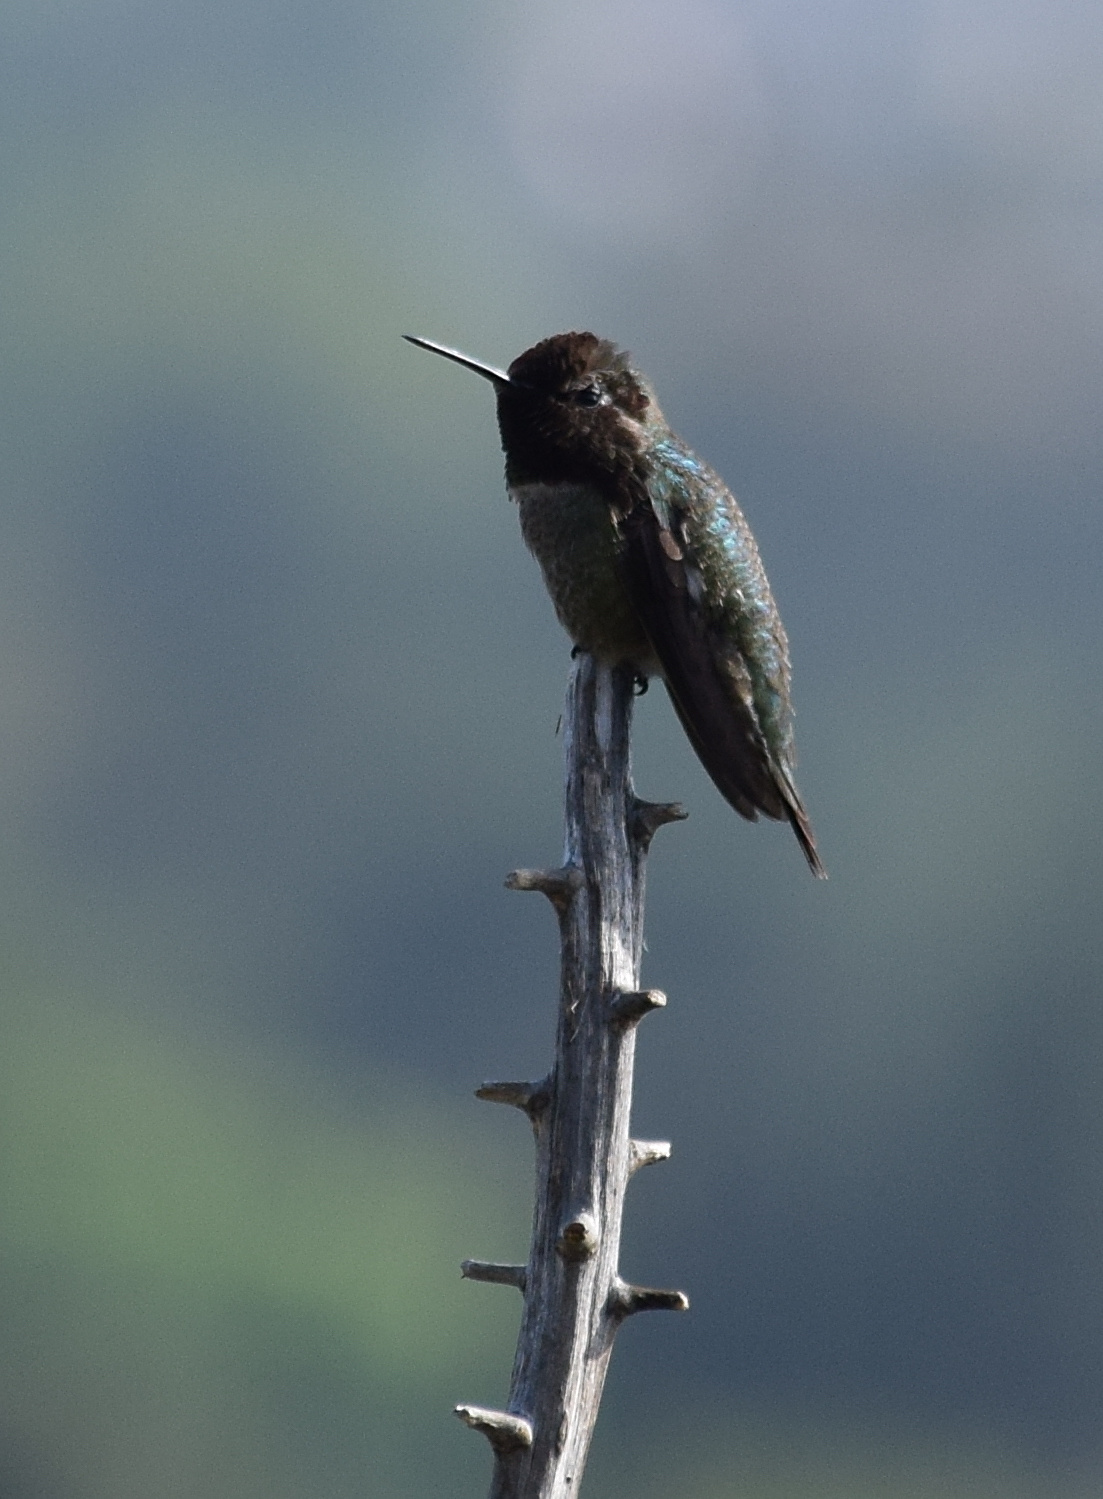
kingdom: Animalia
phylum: Chordata
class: Aves
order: Apodiformes
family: Trochilidae
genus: Calypte
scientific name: Calypte anna
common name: Anna's hummingbird
